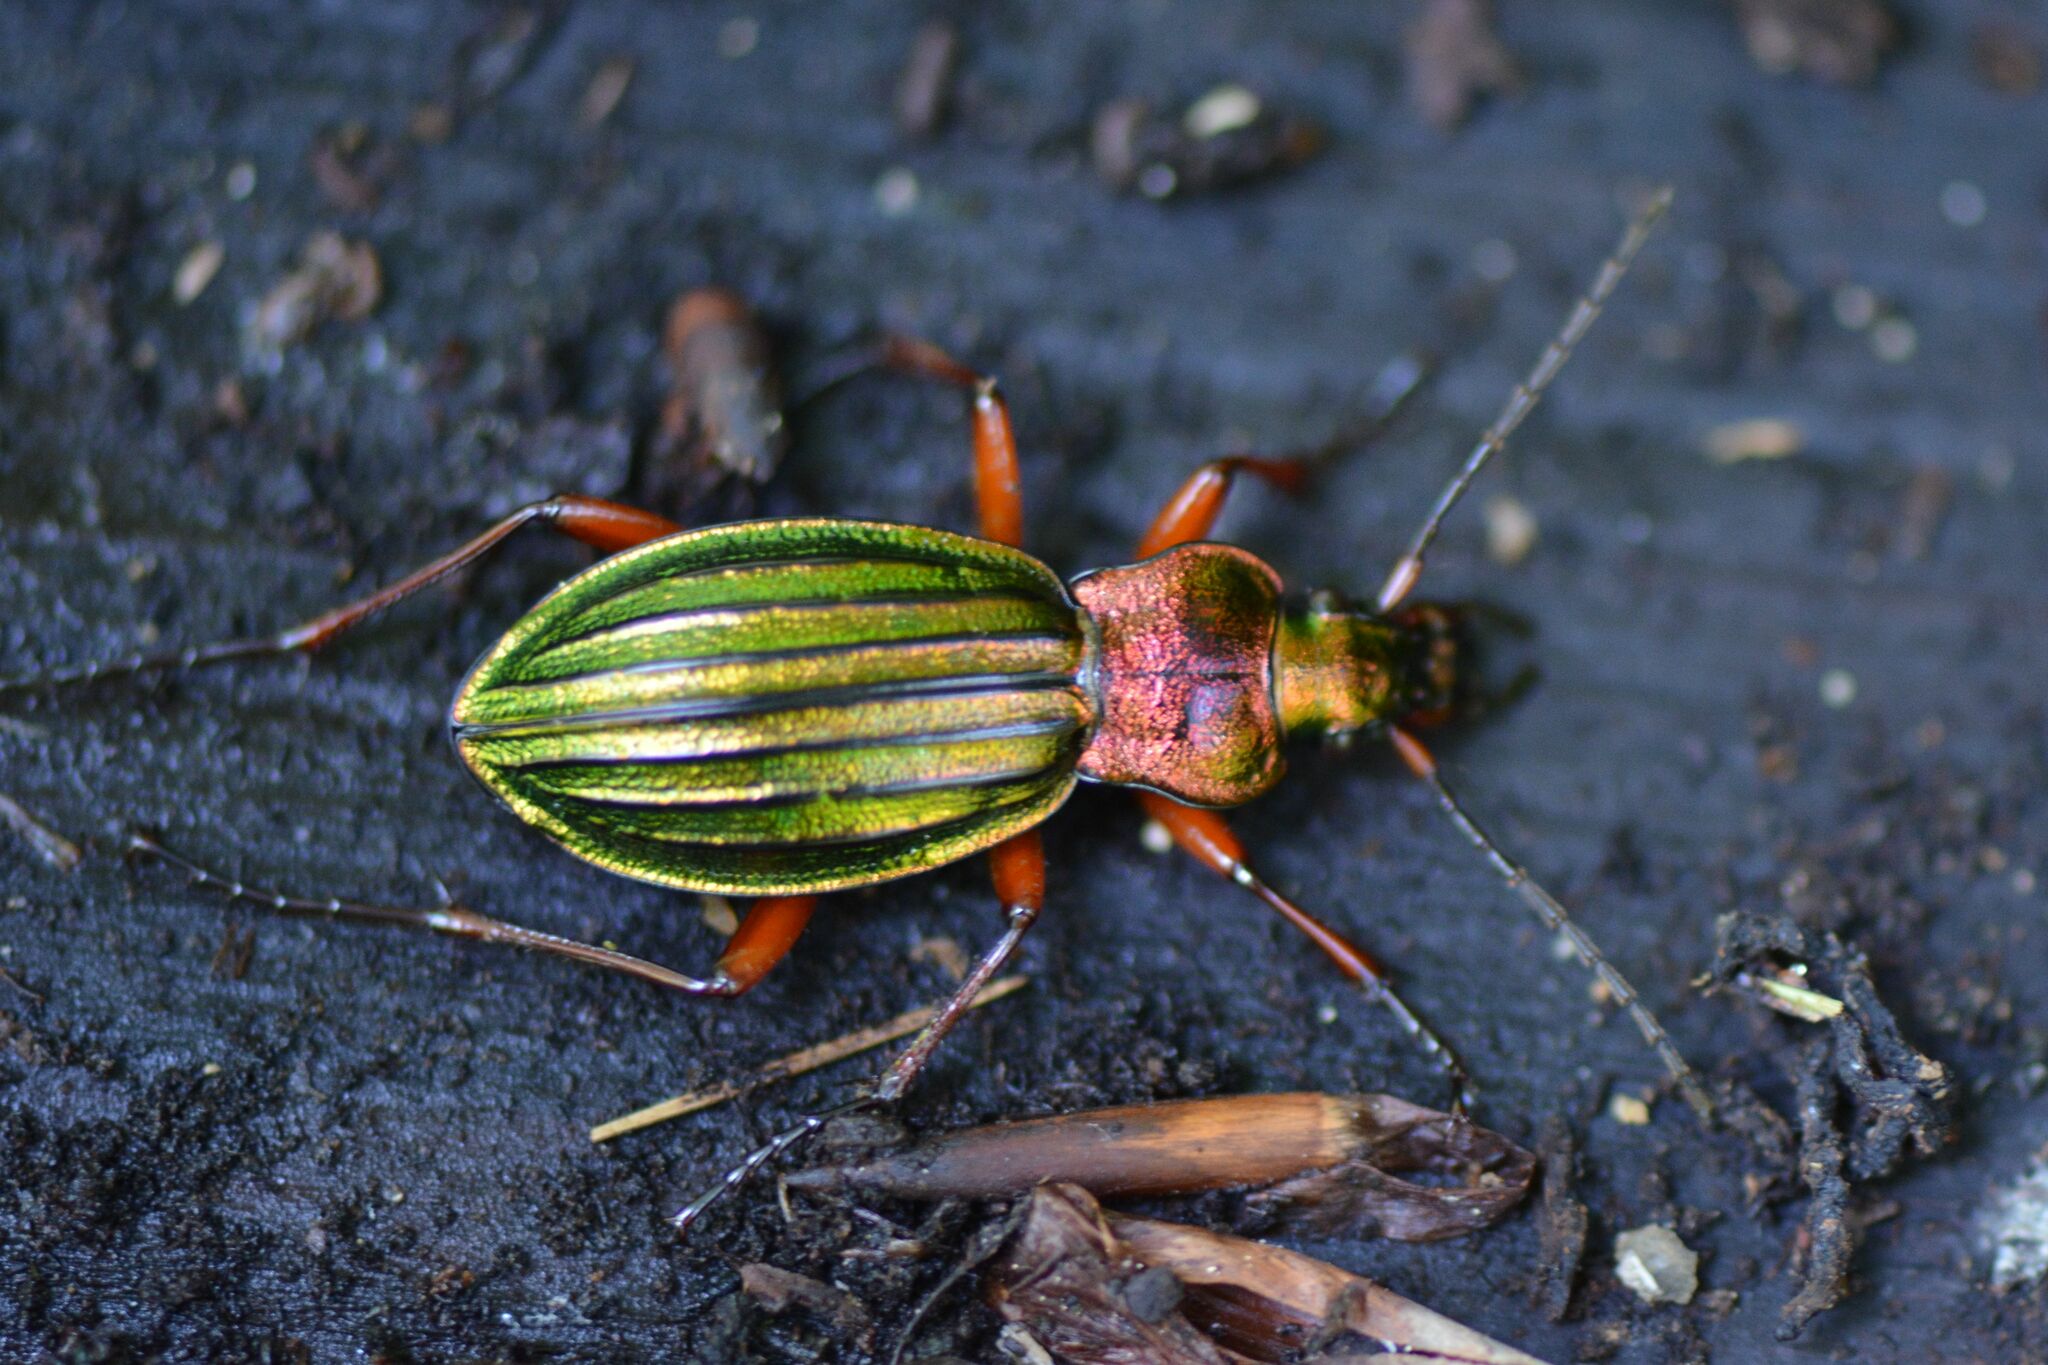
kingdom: Animalia
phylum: Arthropoda
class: Insecta
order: Coleoptera
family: Carabidae
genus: Carabus
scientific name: Carabus auronitens
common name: Carabus auronitens
